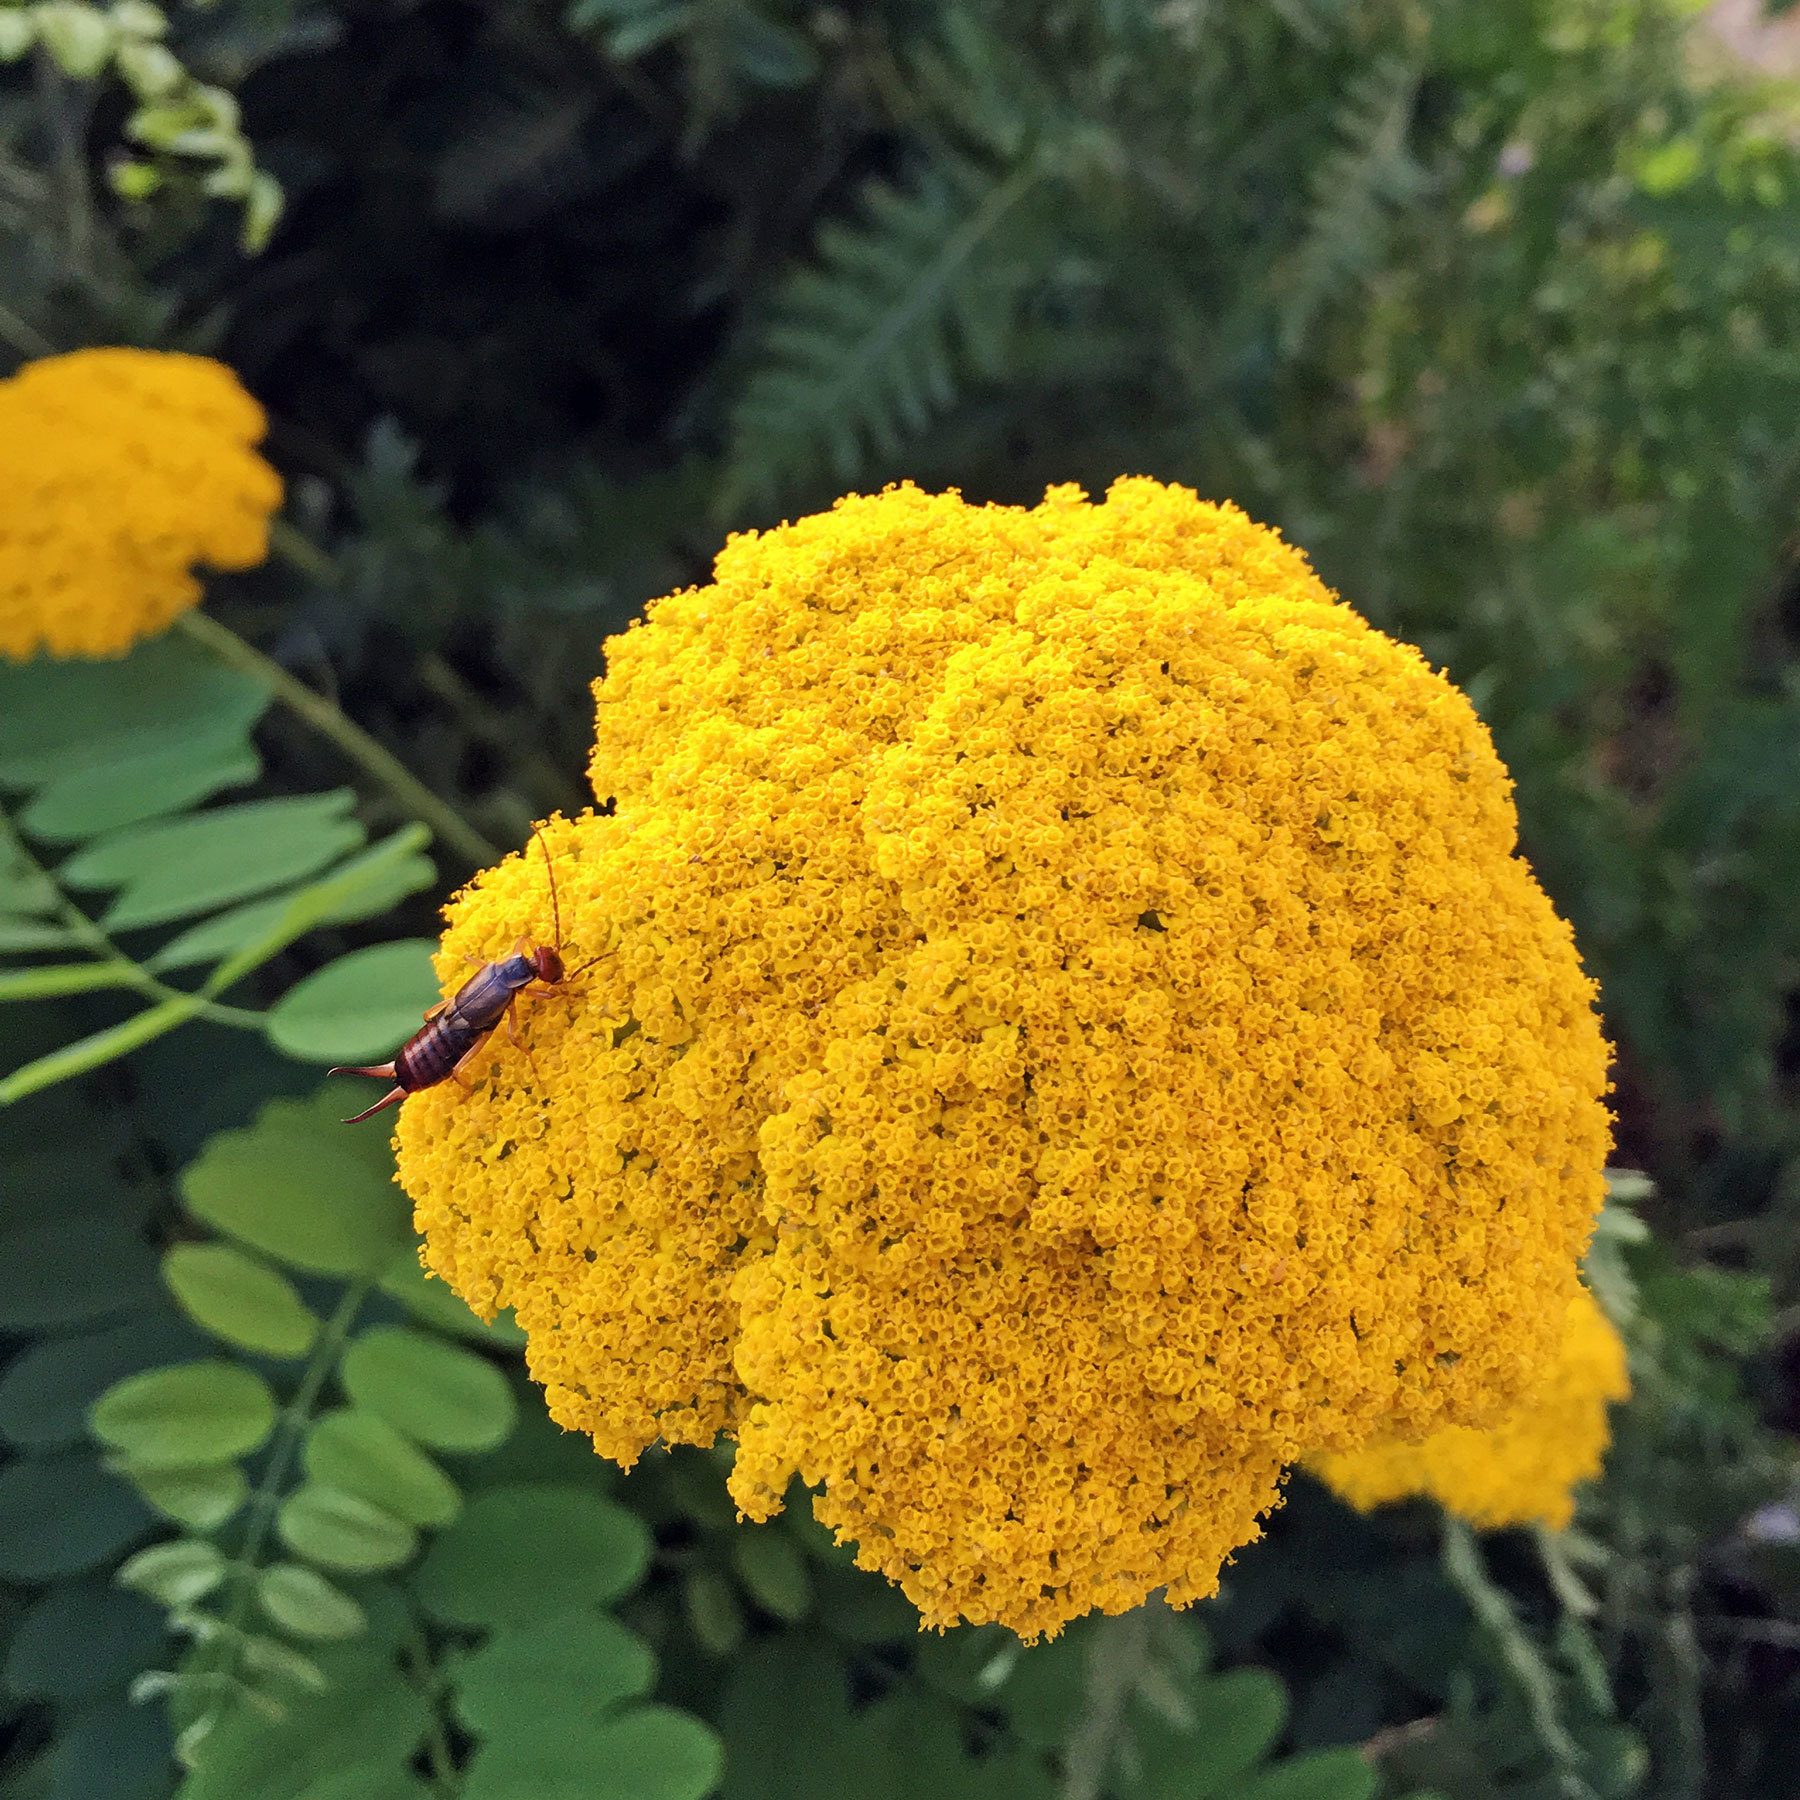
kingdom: Plantae
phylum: Tracheophyta
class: Magnoliopsida
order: Asterales
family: Asteraceae
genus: Achillea
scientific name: Achillea filipendulina
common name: Fernleaf yarrow
